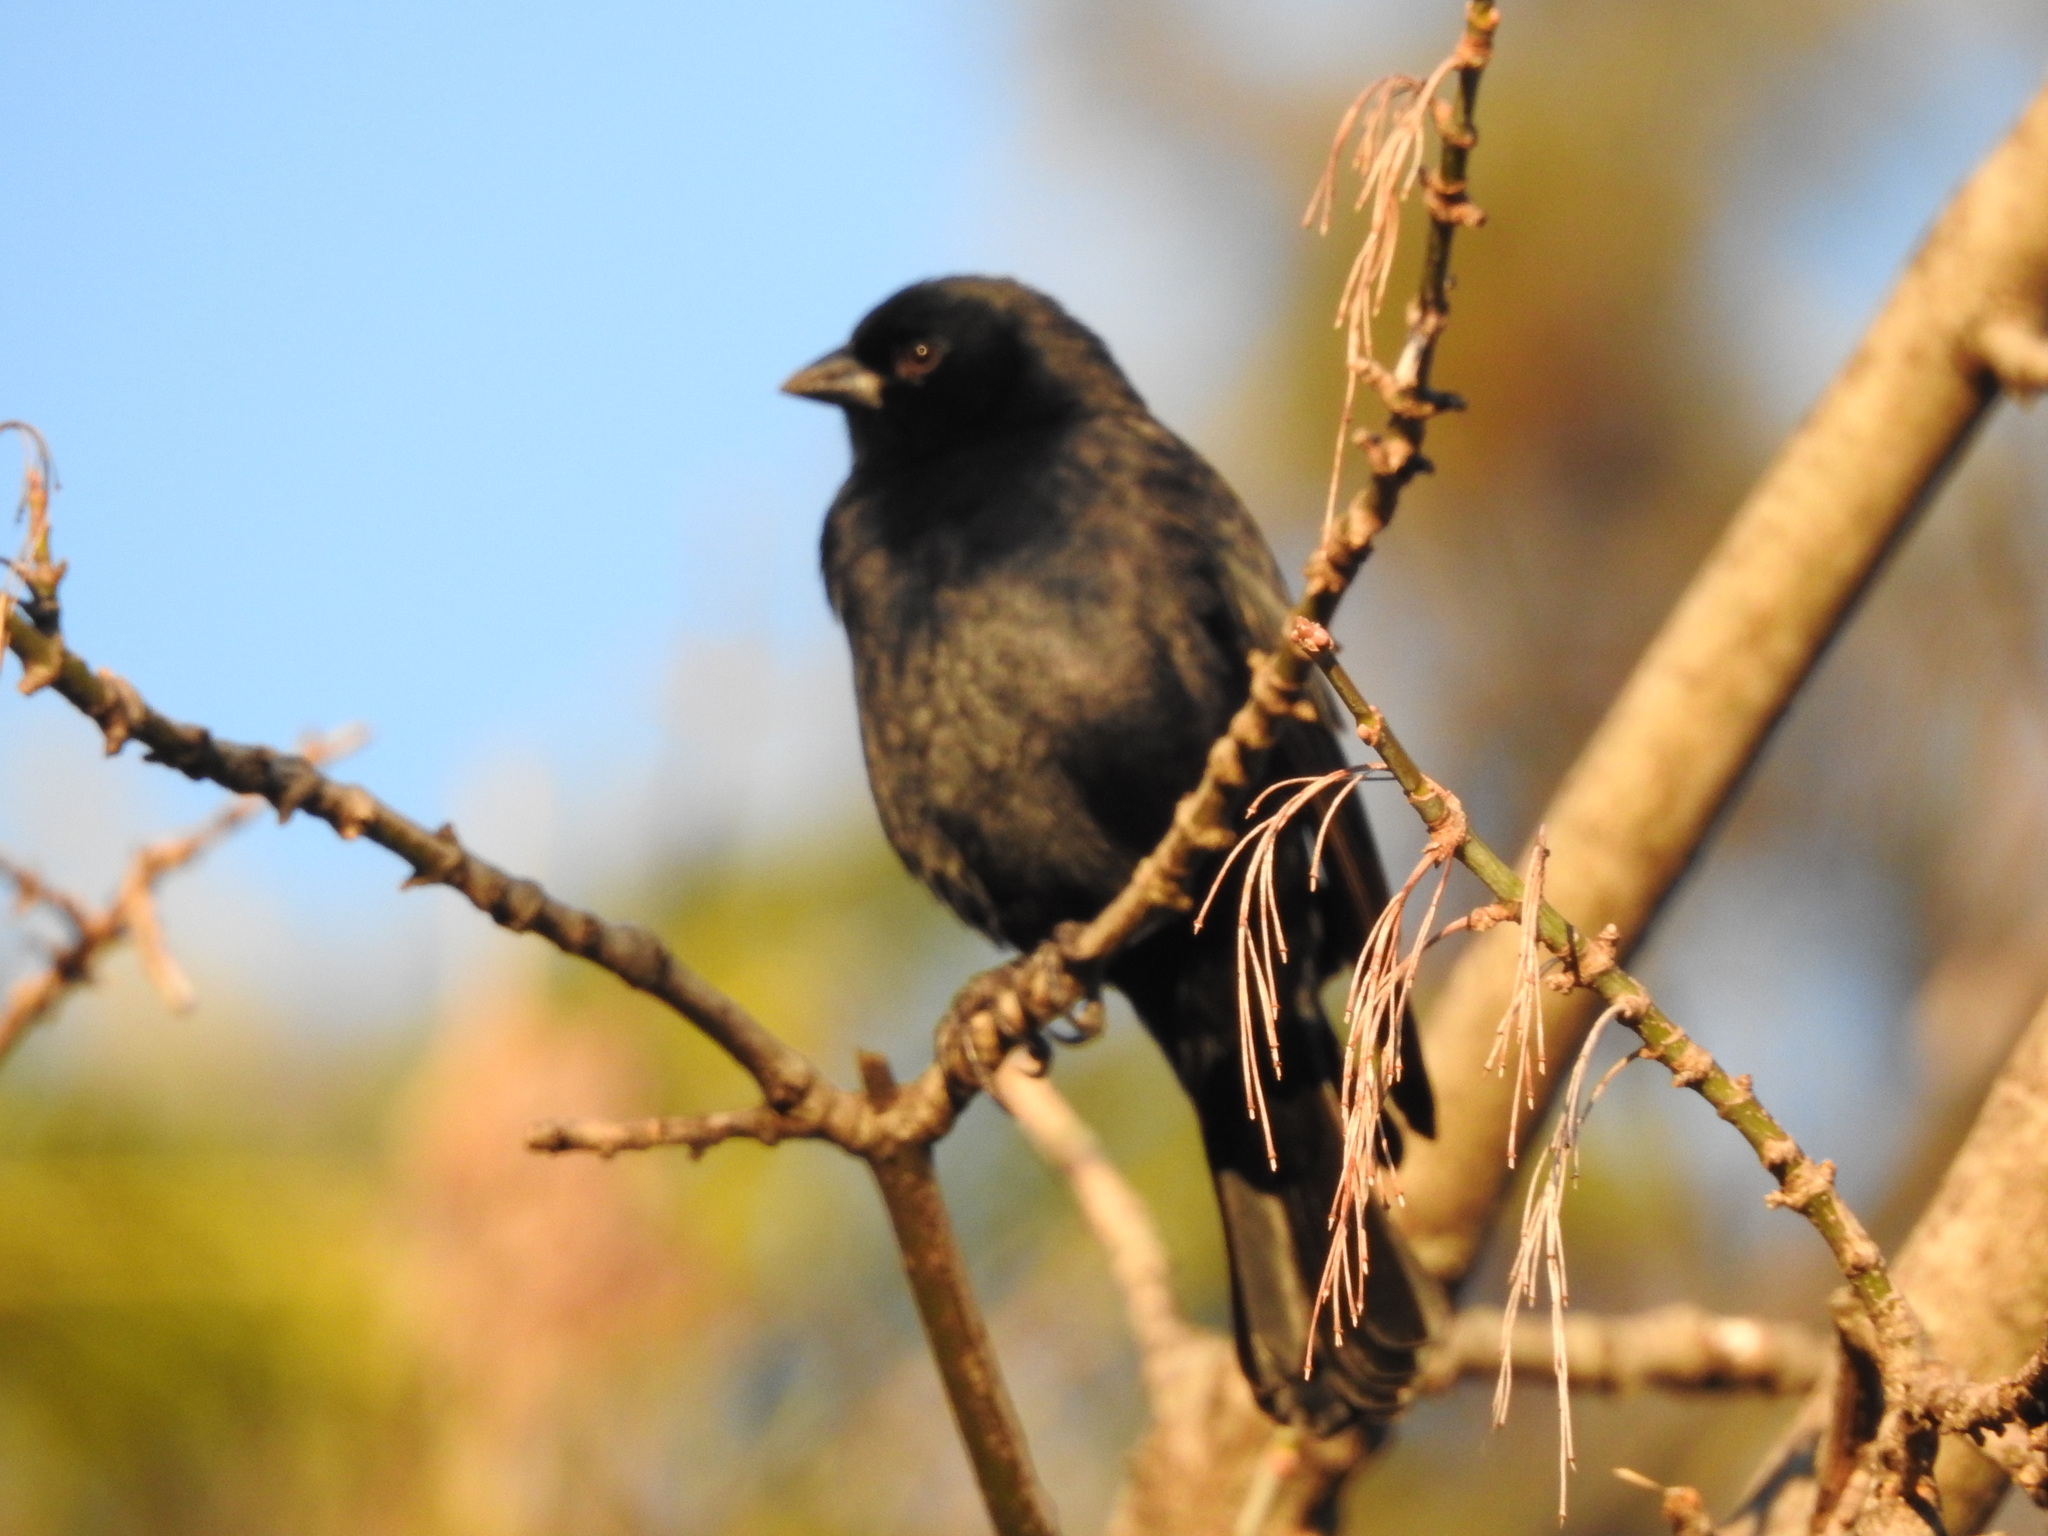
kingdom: Animalia
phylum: Chordata
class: Aves
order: Passeriformes
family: Icteridae
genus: Molothrus
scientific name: Molothrus rufoaxillaris
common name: Screaming cowbird
